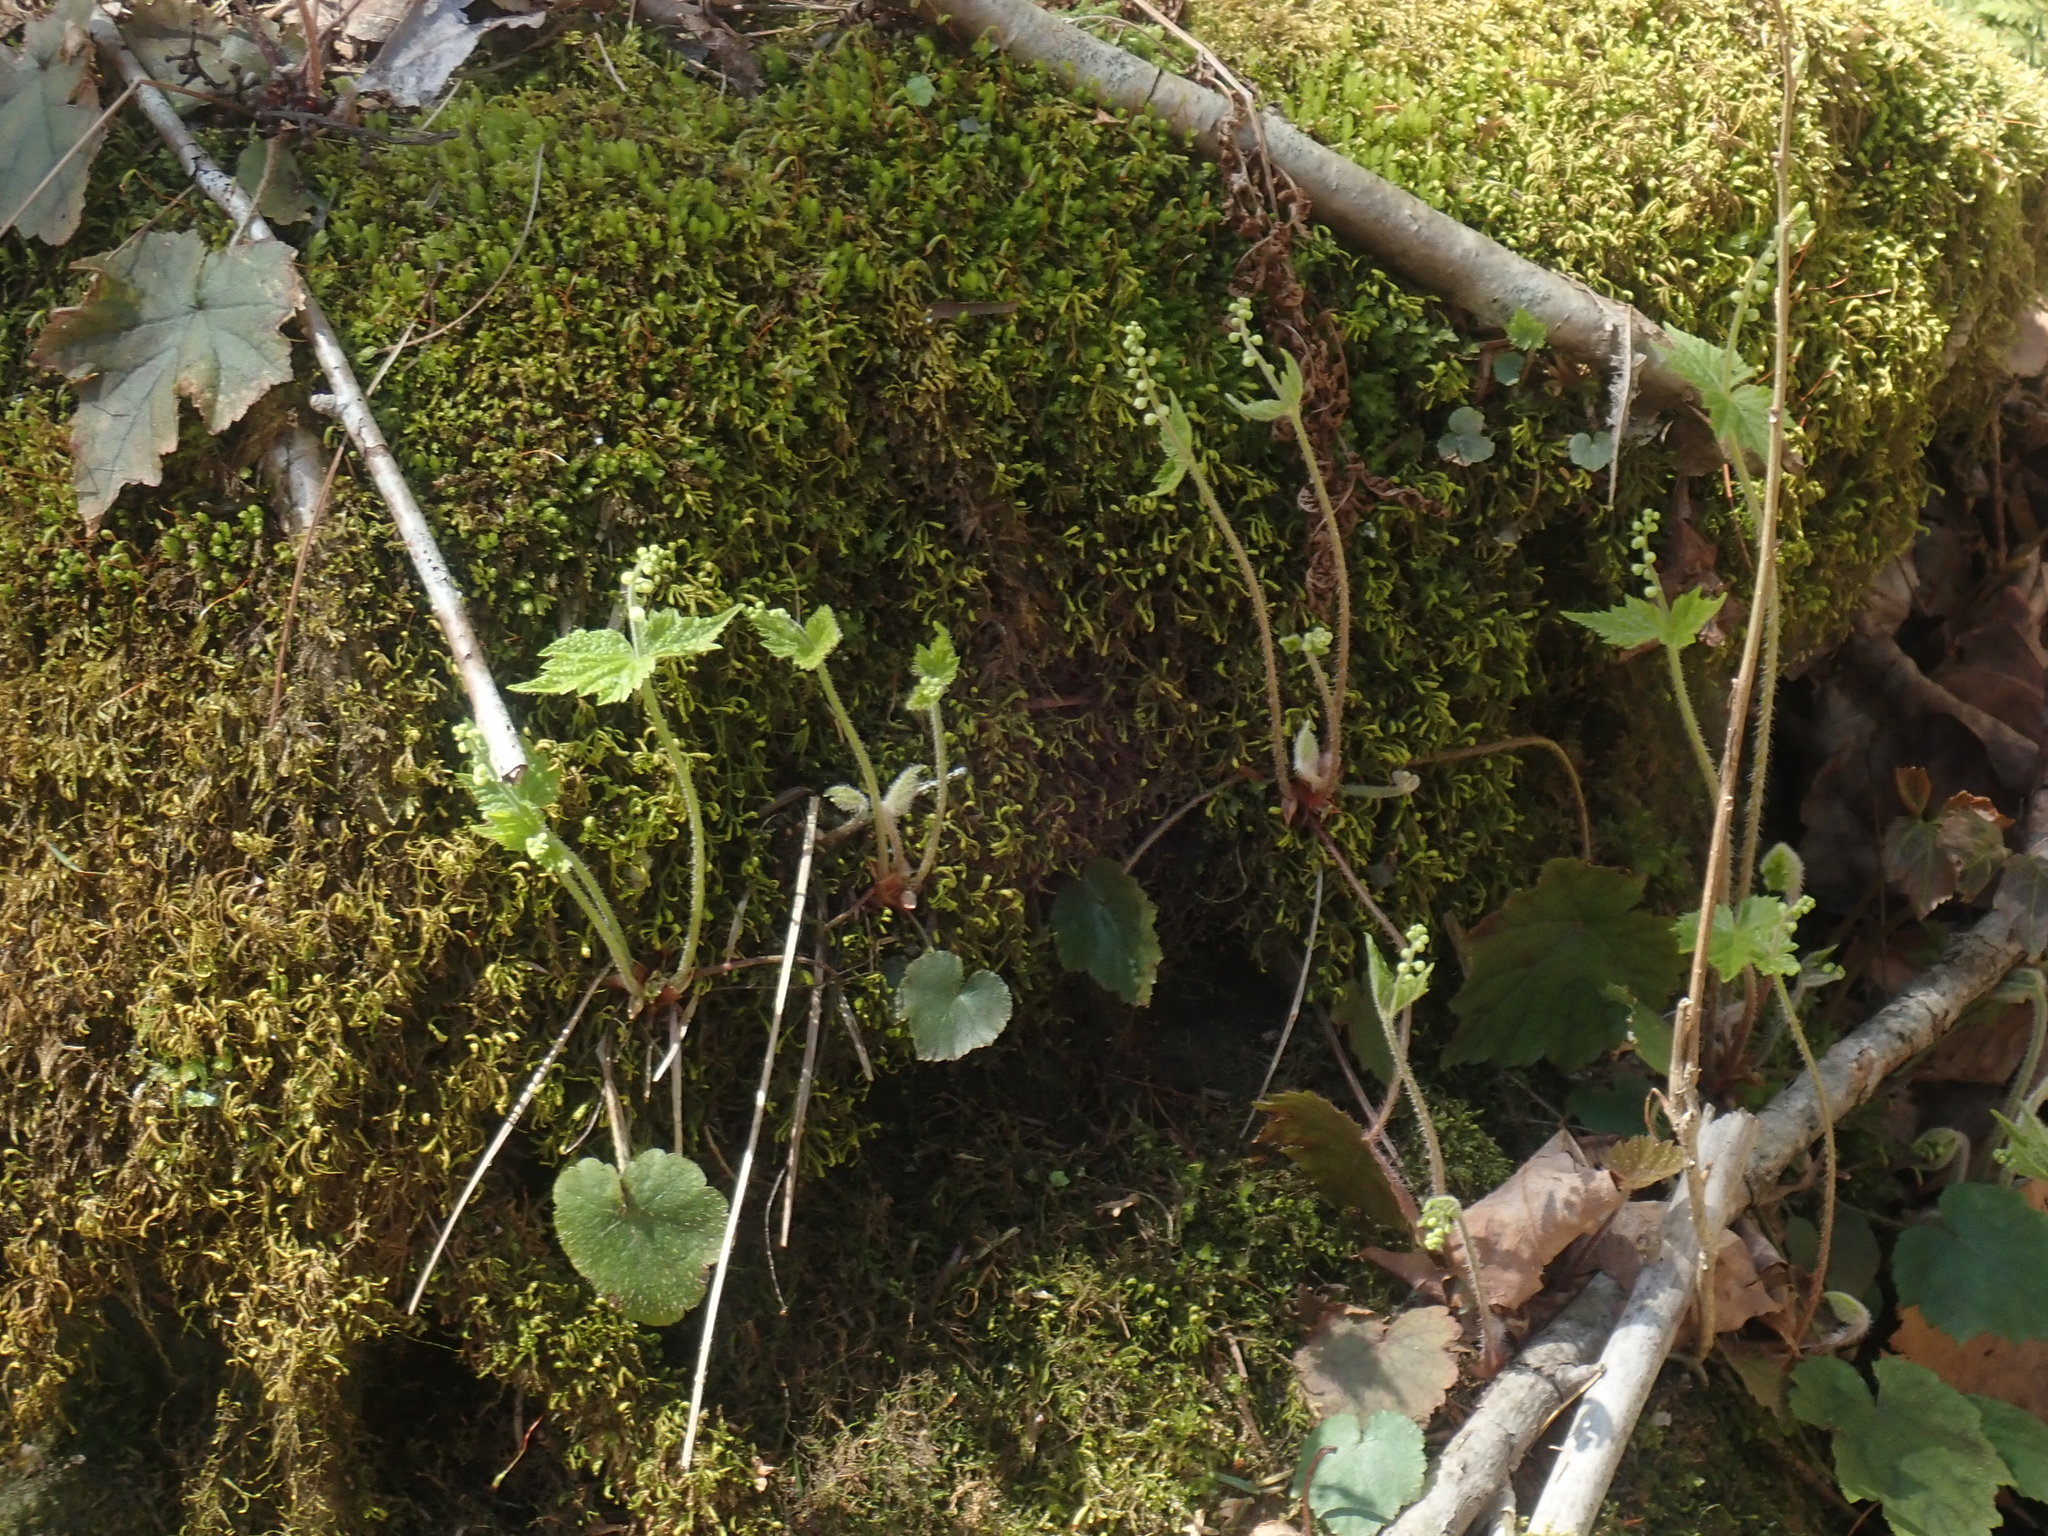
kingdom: Plantae
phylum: Tracheophyta
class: Magnoliopsida
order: Saxifragales
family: Saxifragaceae
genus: Mitella
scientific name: Mitella diphylla
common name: Coolwort
